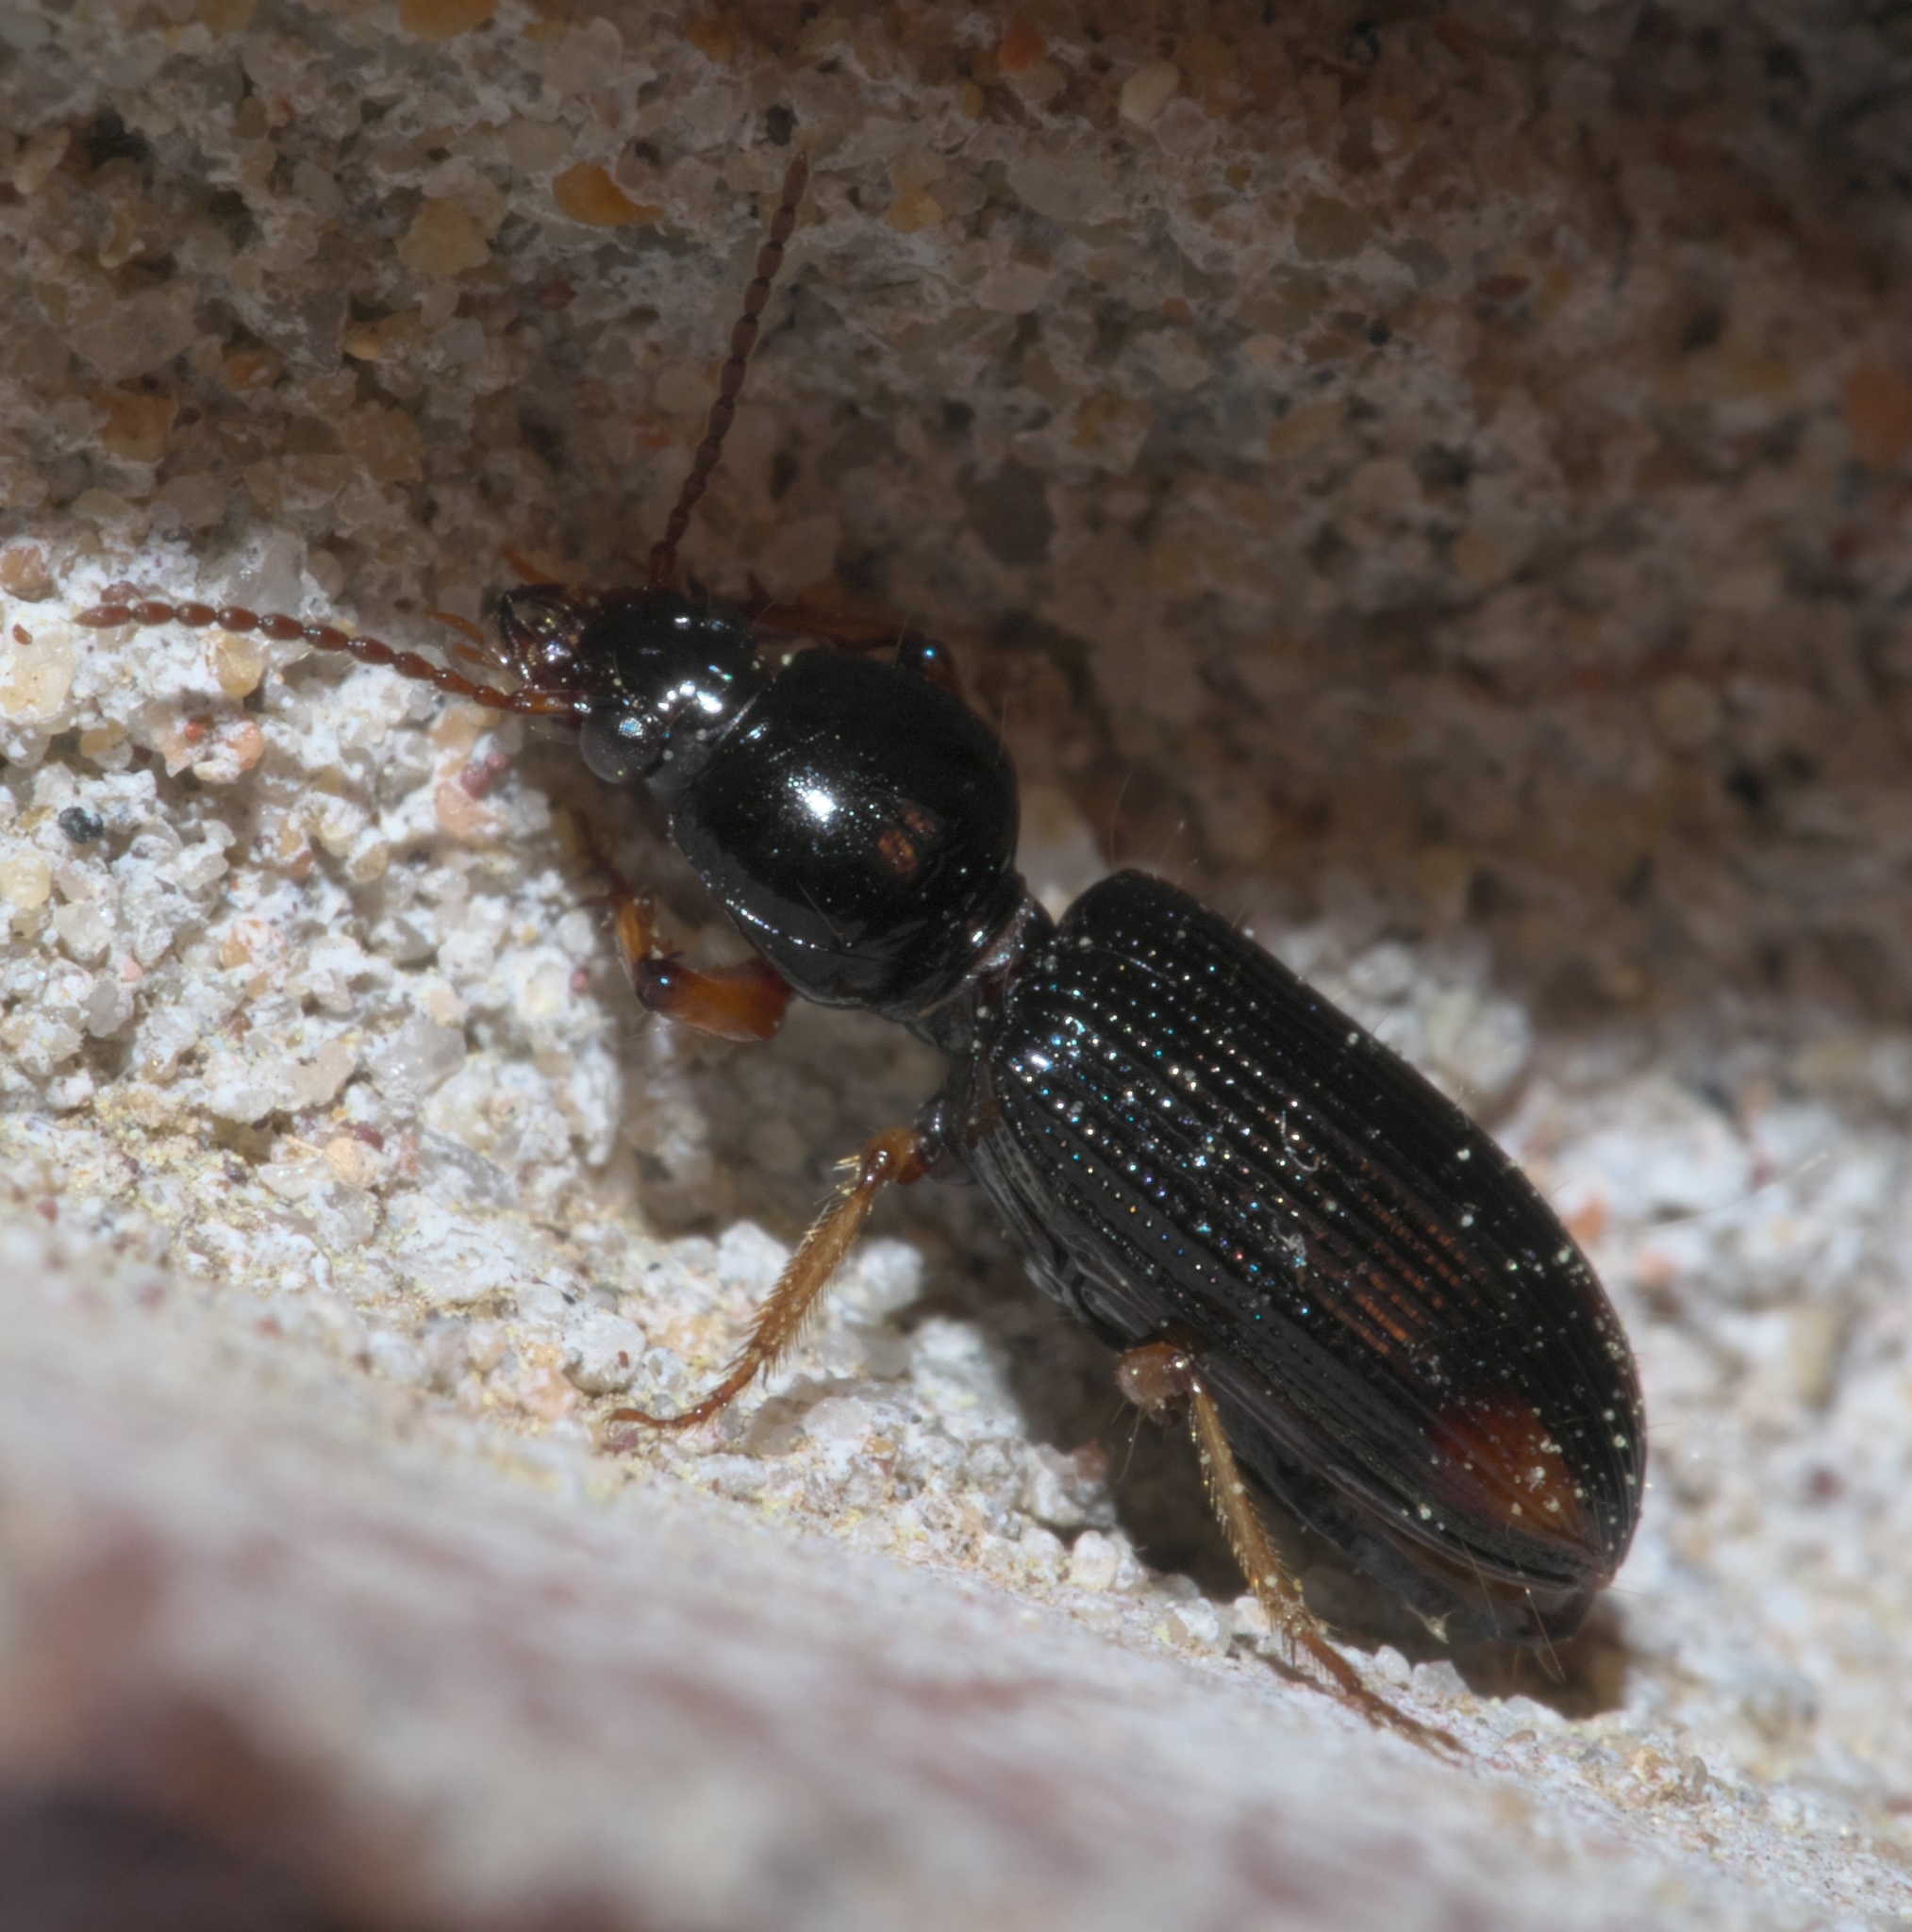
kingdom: Animalia
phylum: Arthropoda
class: Insecta
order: Coleoptera
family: Carabidae
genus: Aspidoglossa
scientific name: Aspidoglossa subangulata
